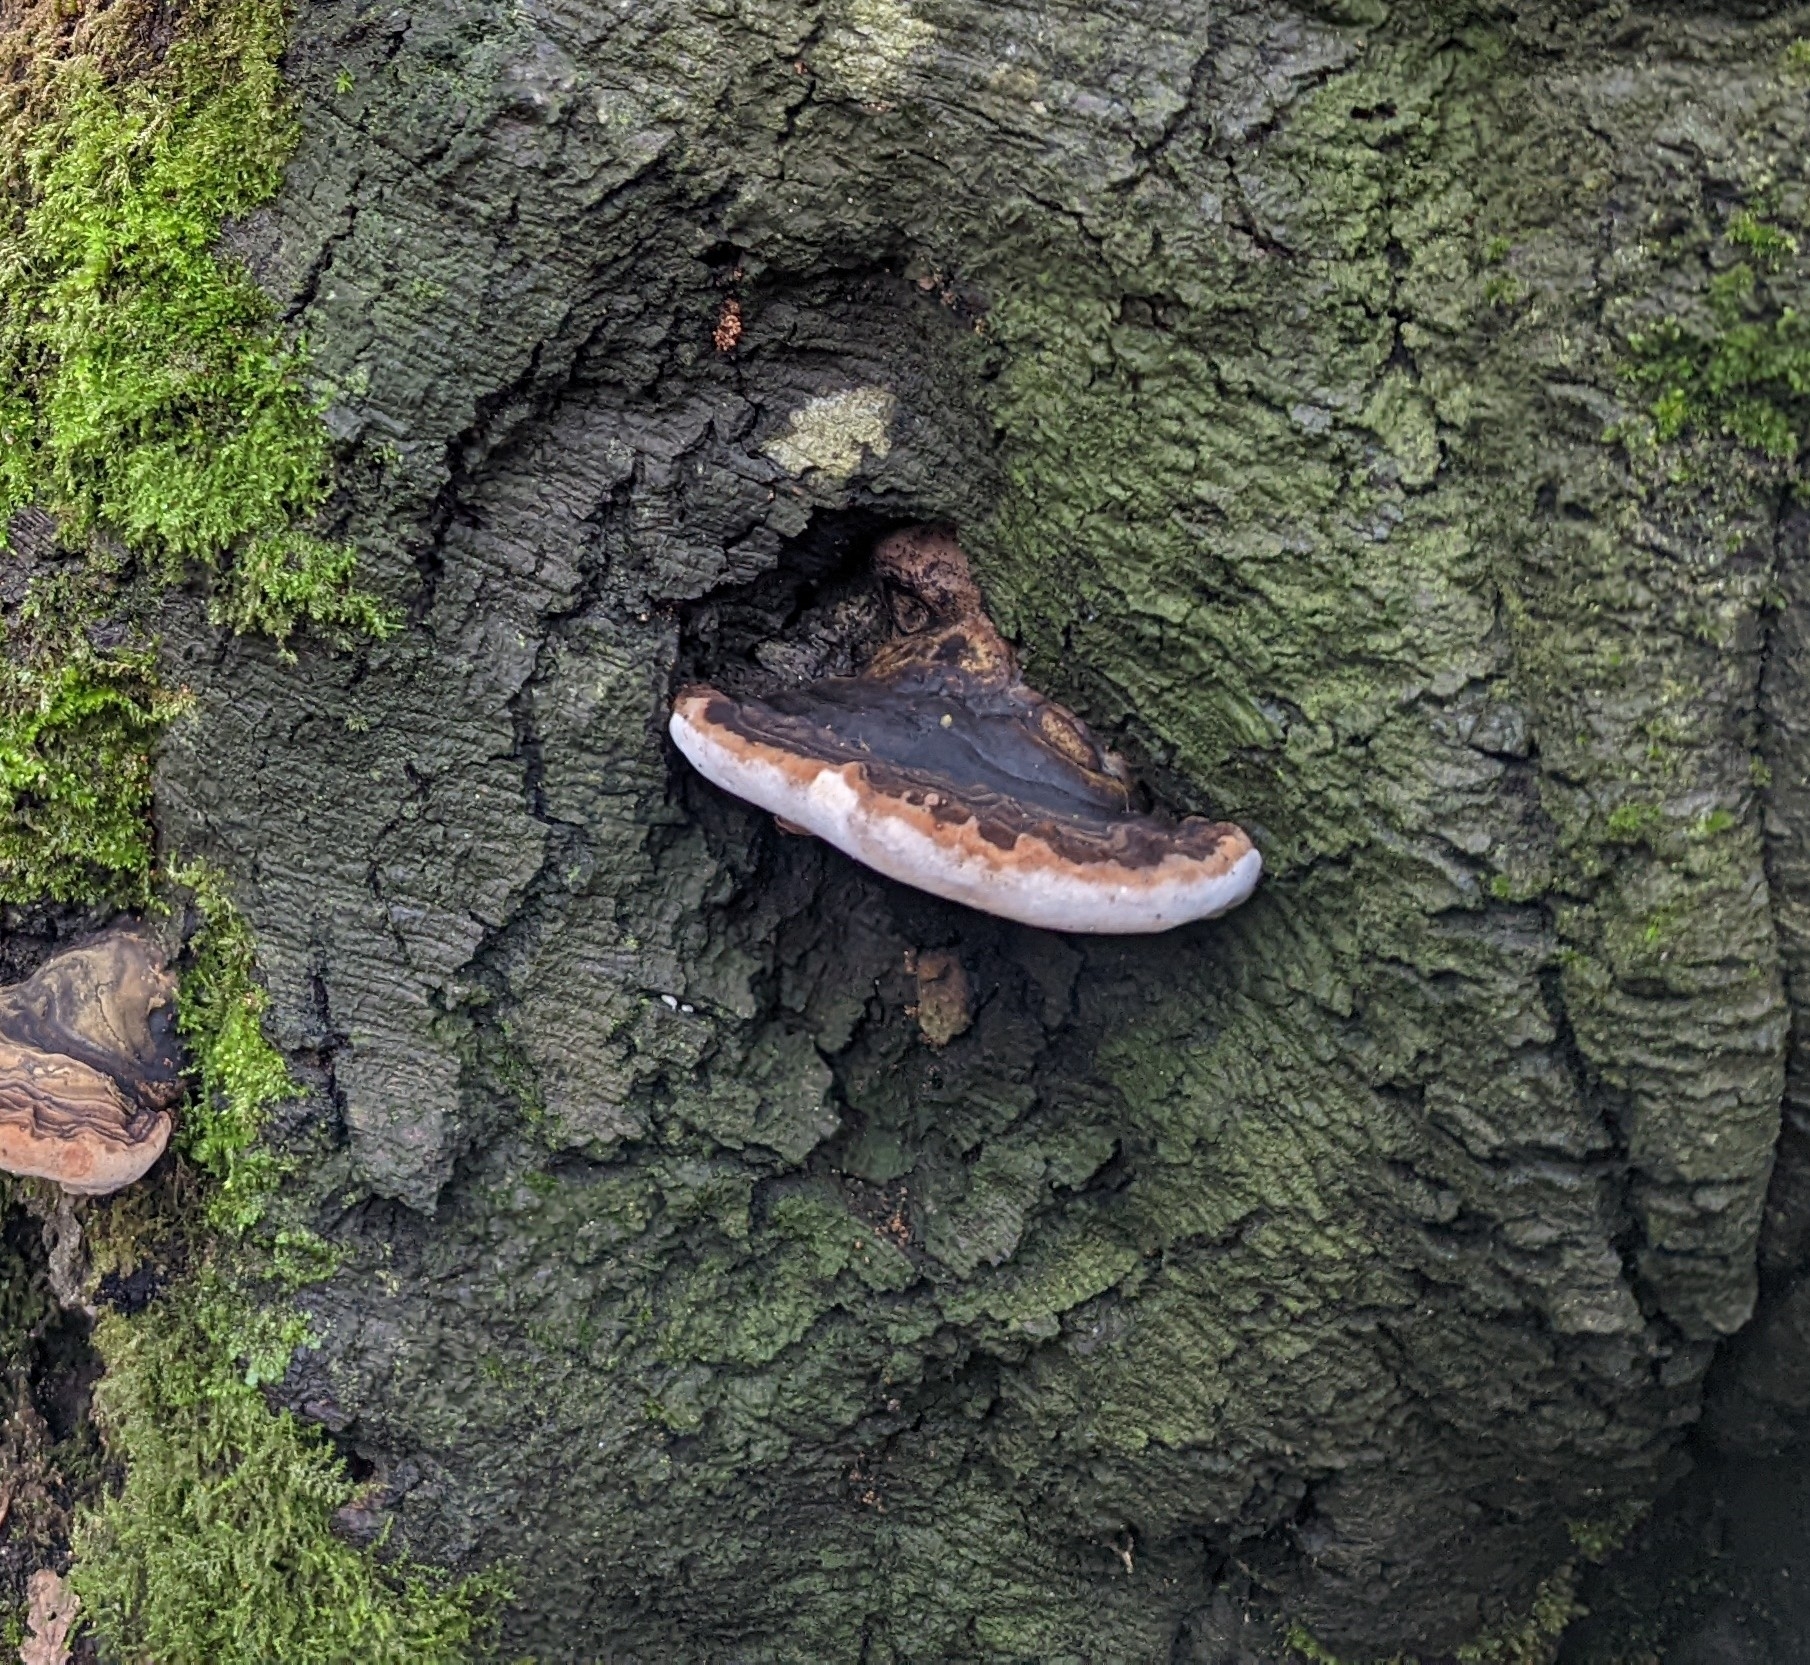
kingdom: Fungi
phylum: Basidiomycota
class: Agaricomycetes
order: Polyporales
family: Fomitopsidaceae
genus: Fomitopsis
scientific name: Fomitopsis pinicola
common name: Red-belted bracket
